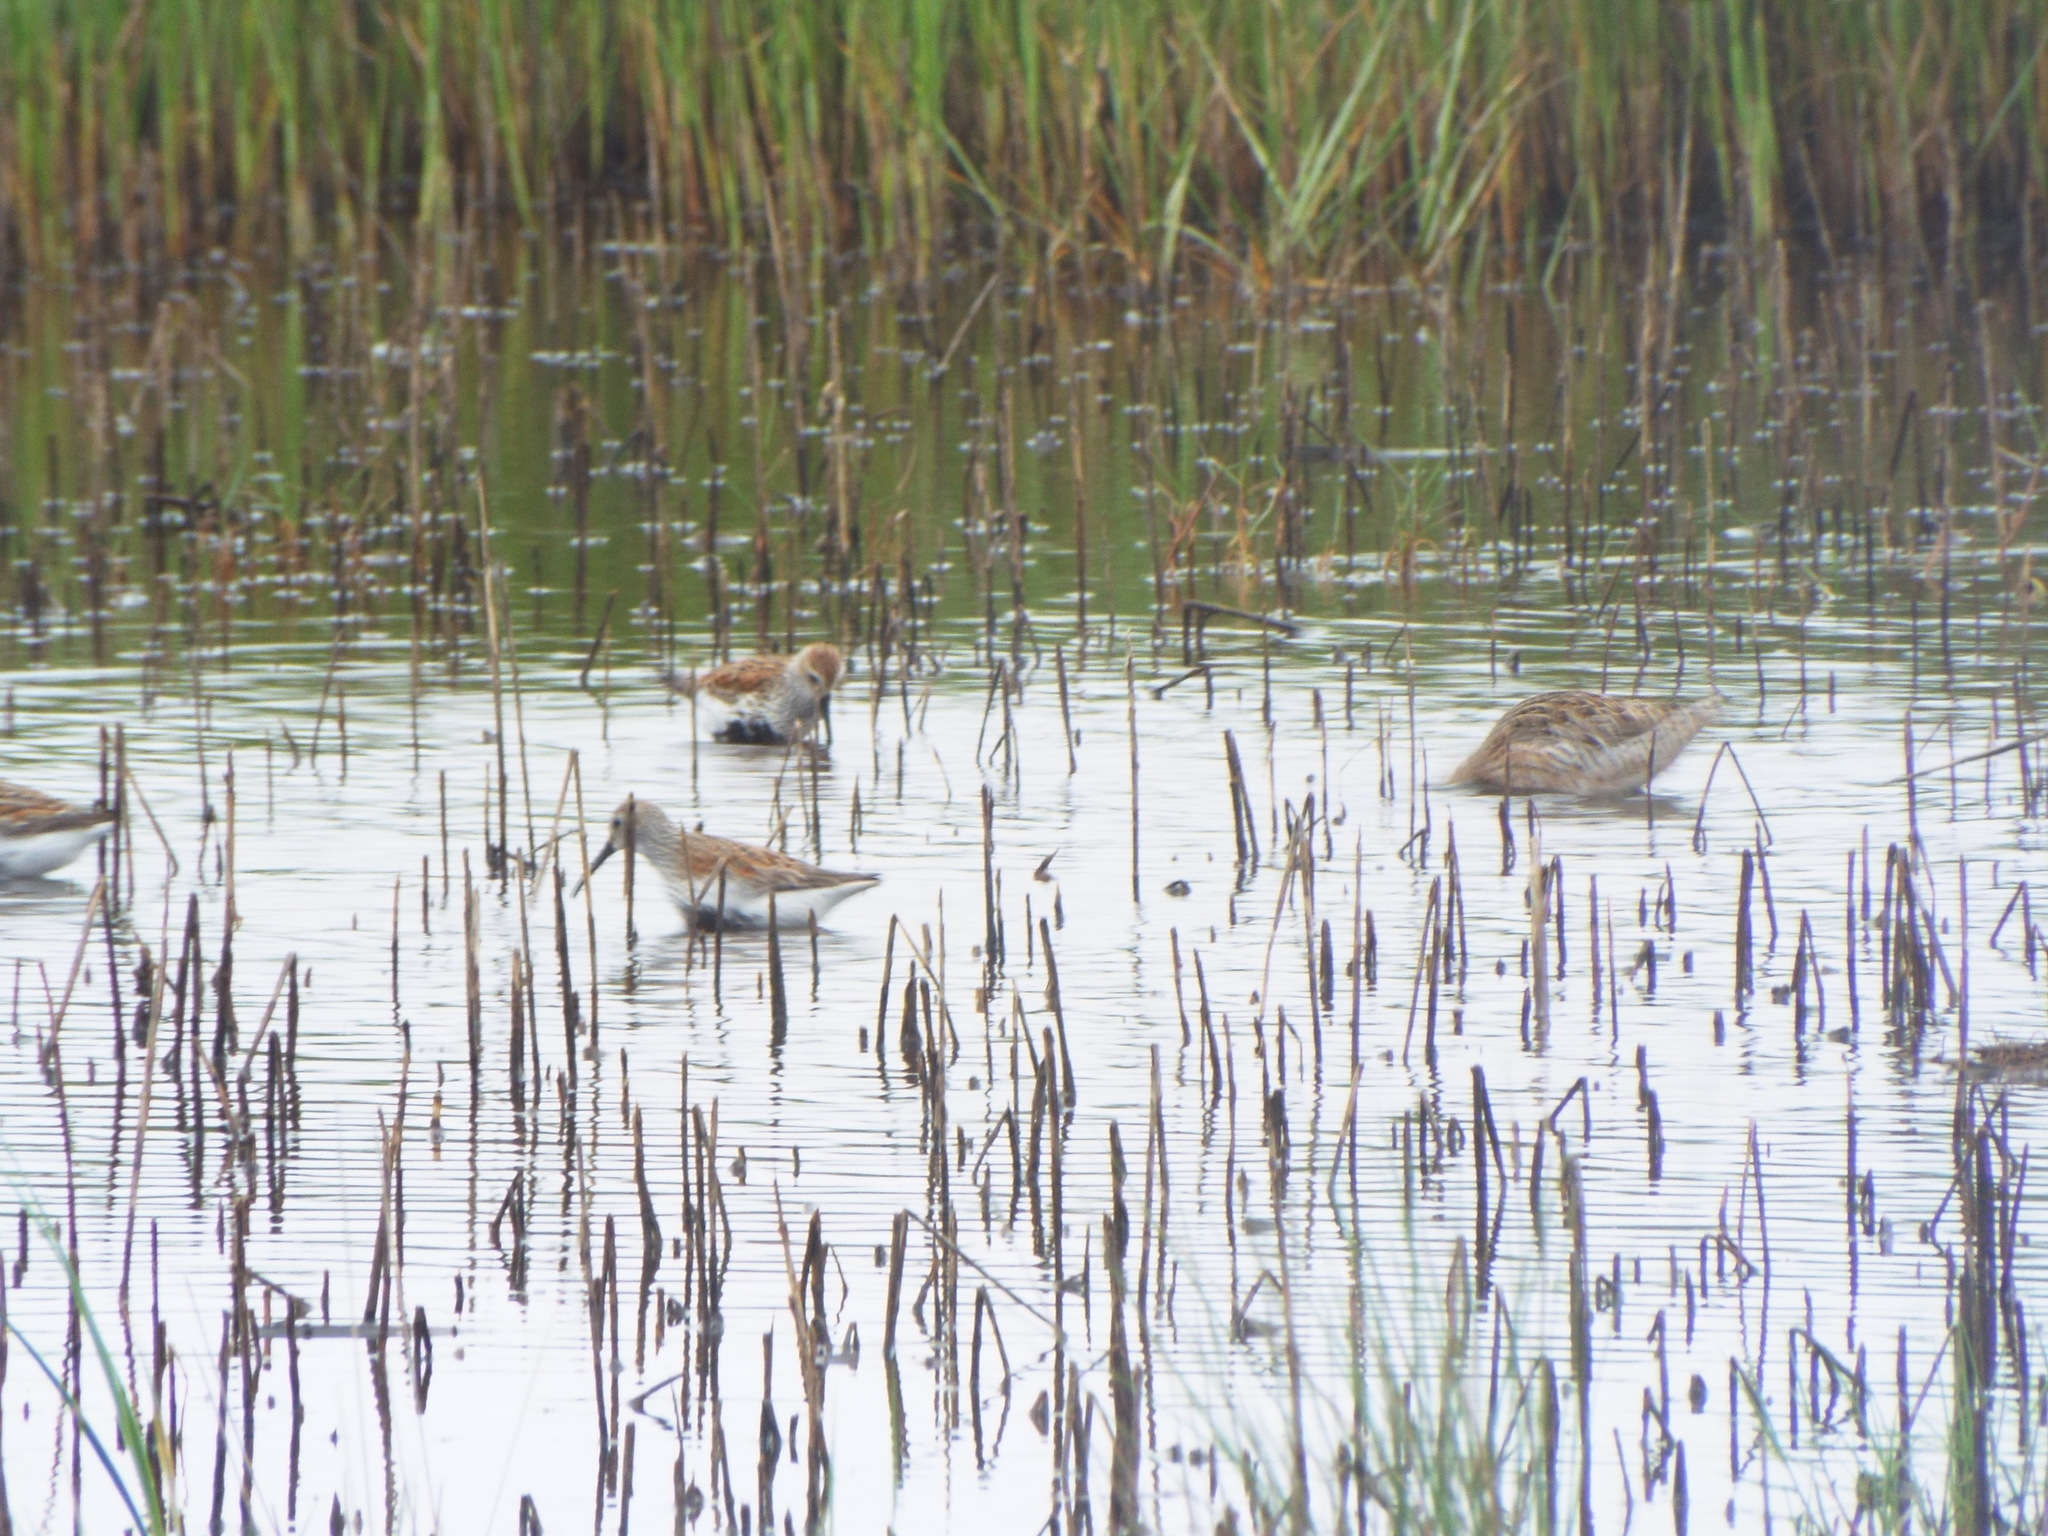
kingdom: Animalia
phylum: Chordata
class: Aves
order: Charadriiformes
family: Scolopacidae
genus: Calidris
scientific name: Calidris alpina
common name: Dunlin
